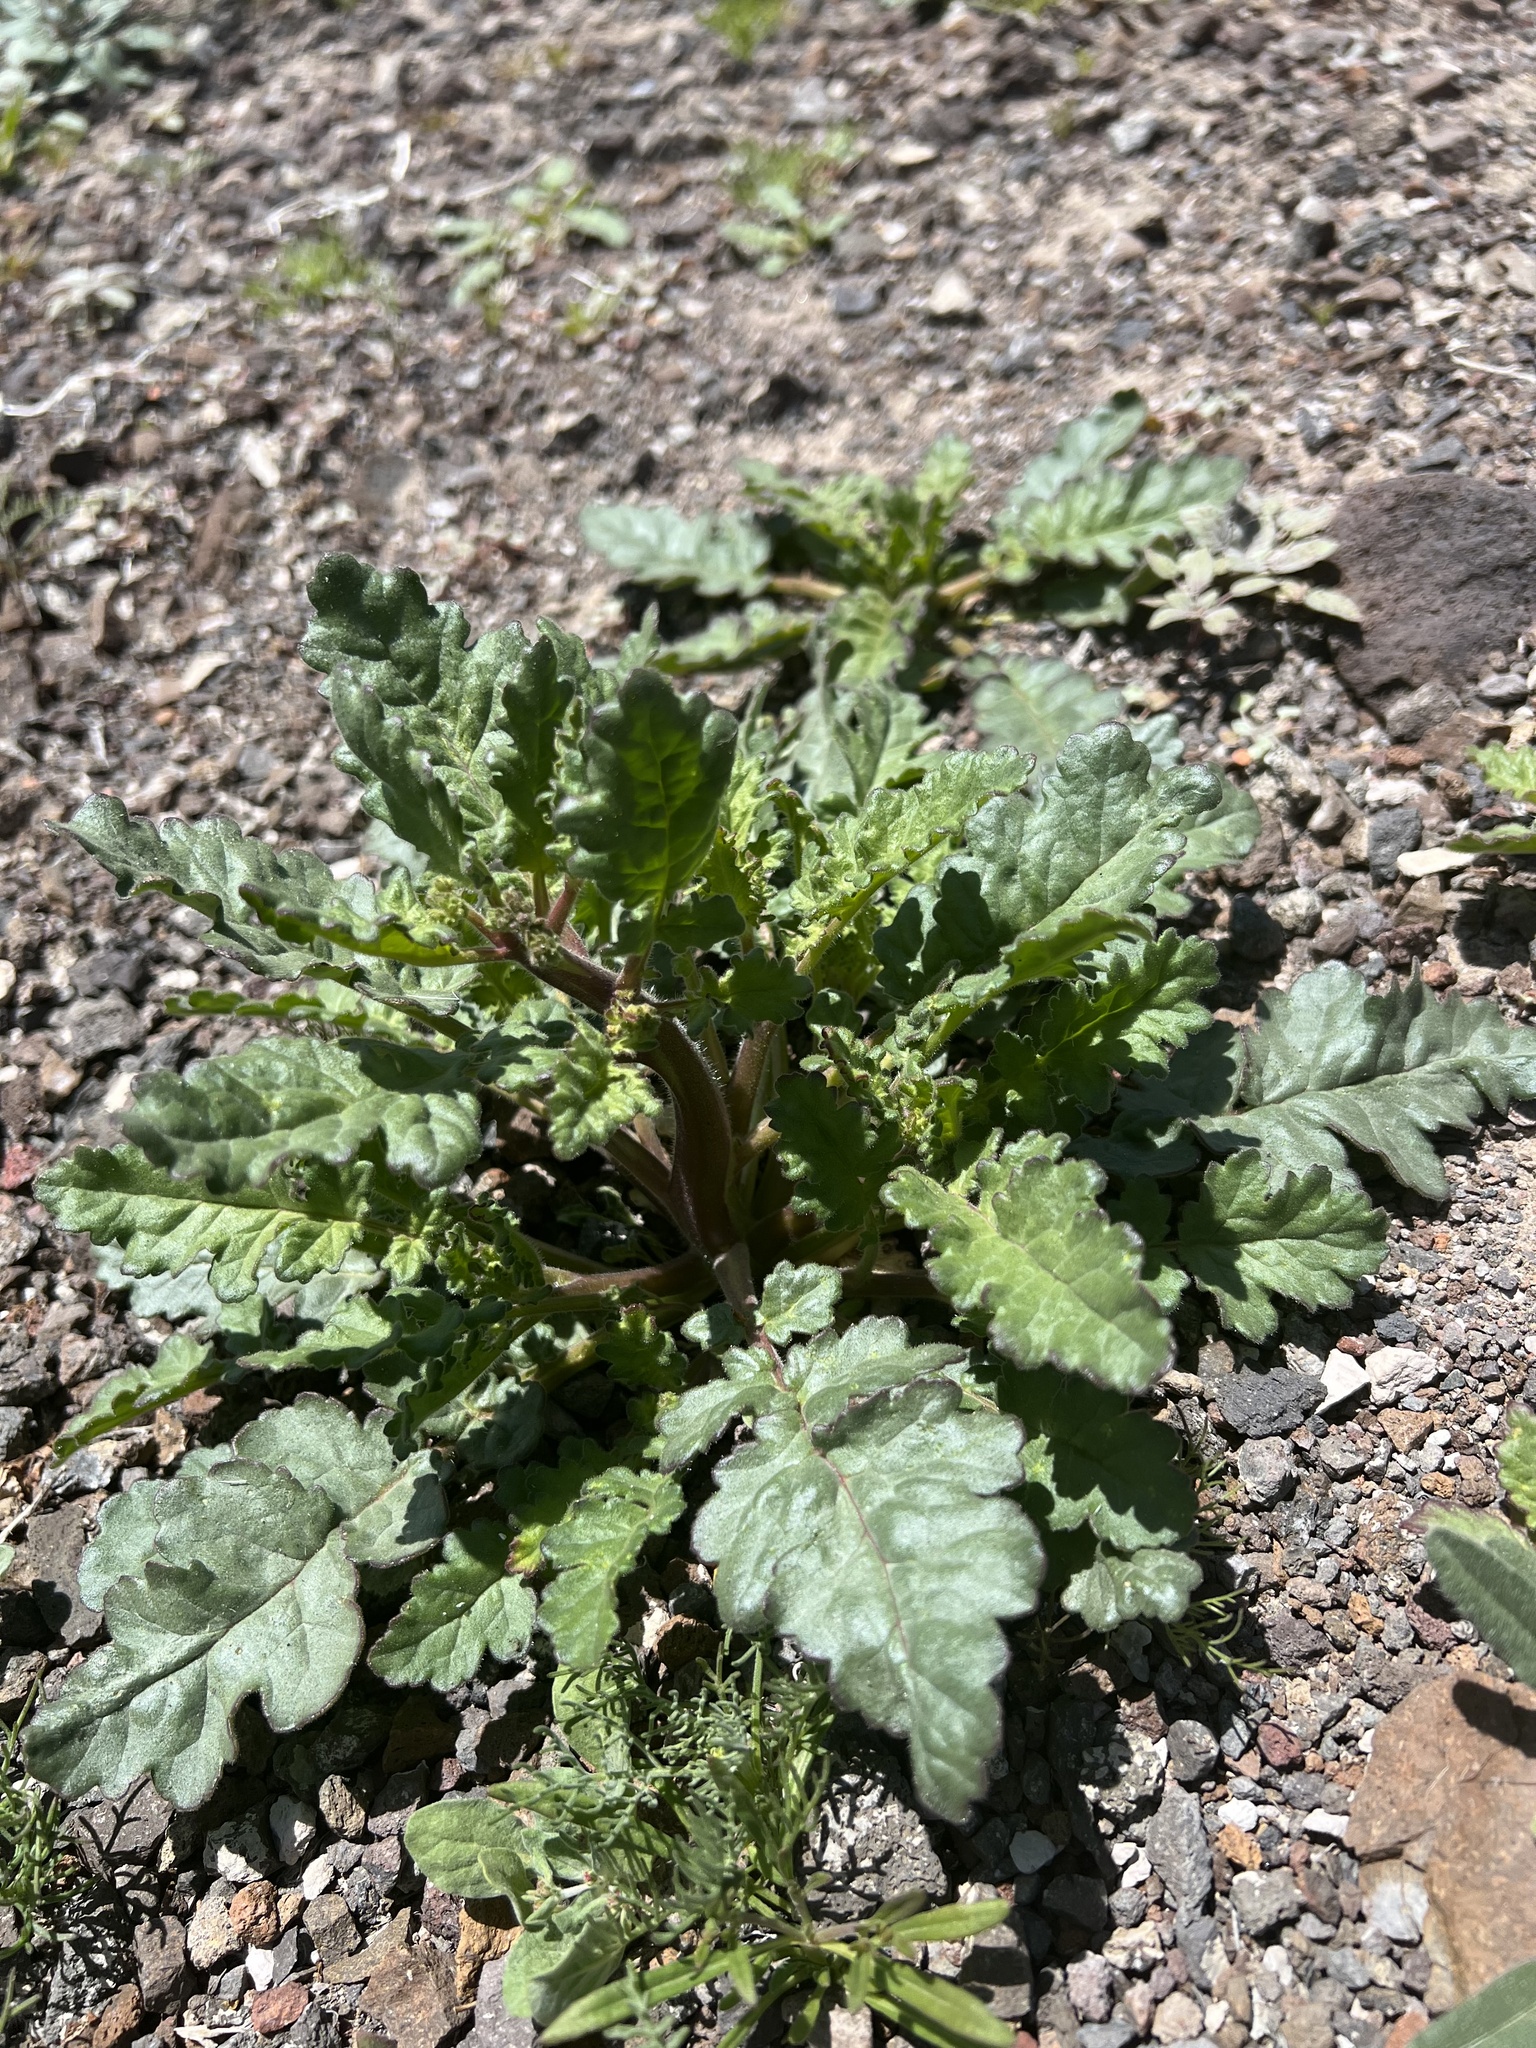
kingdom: Plantae
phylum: Tracheophyta
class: Magnoliopsida
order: Boraginales
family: Hydrophyllaceae
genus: Phacelia
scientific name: Phacelia crenulata
